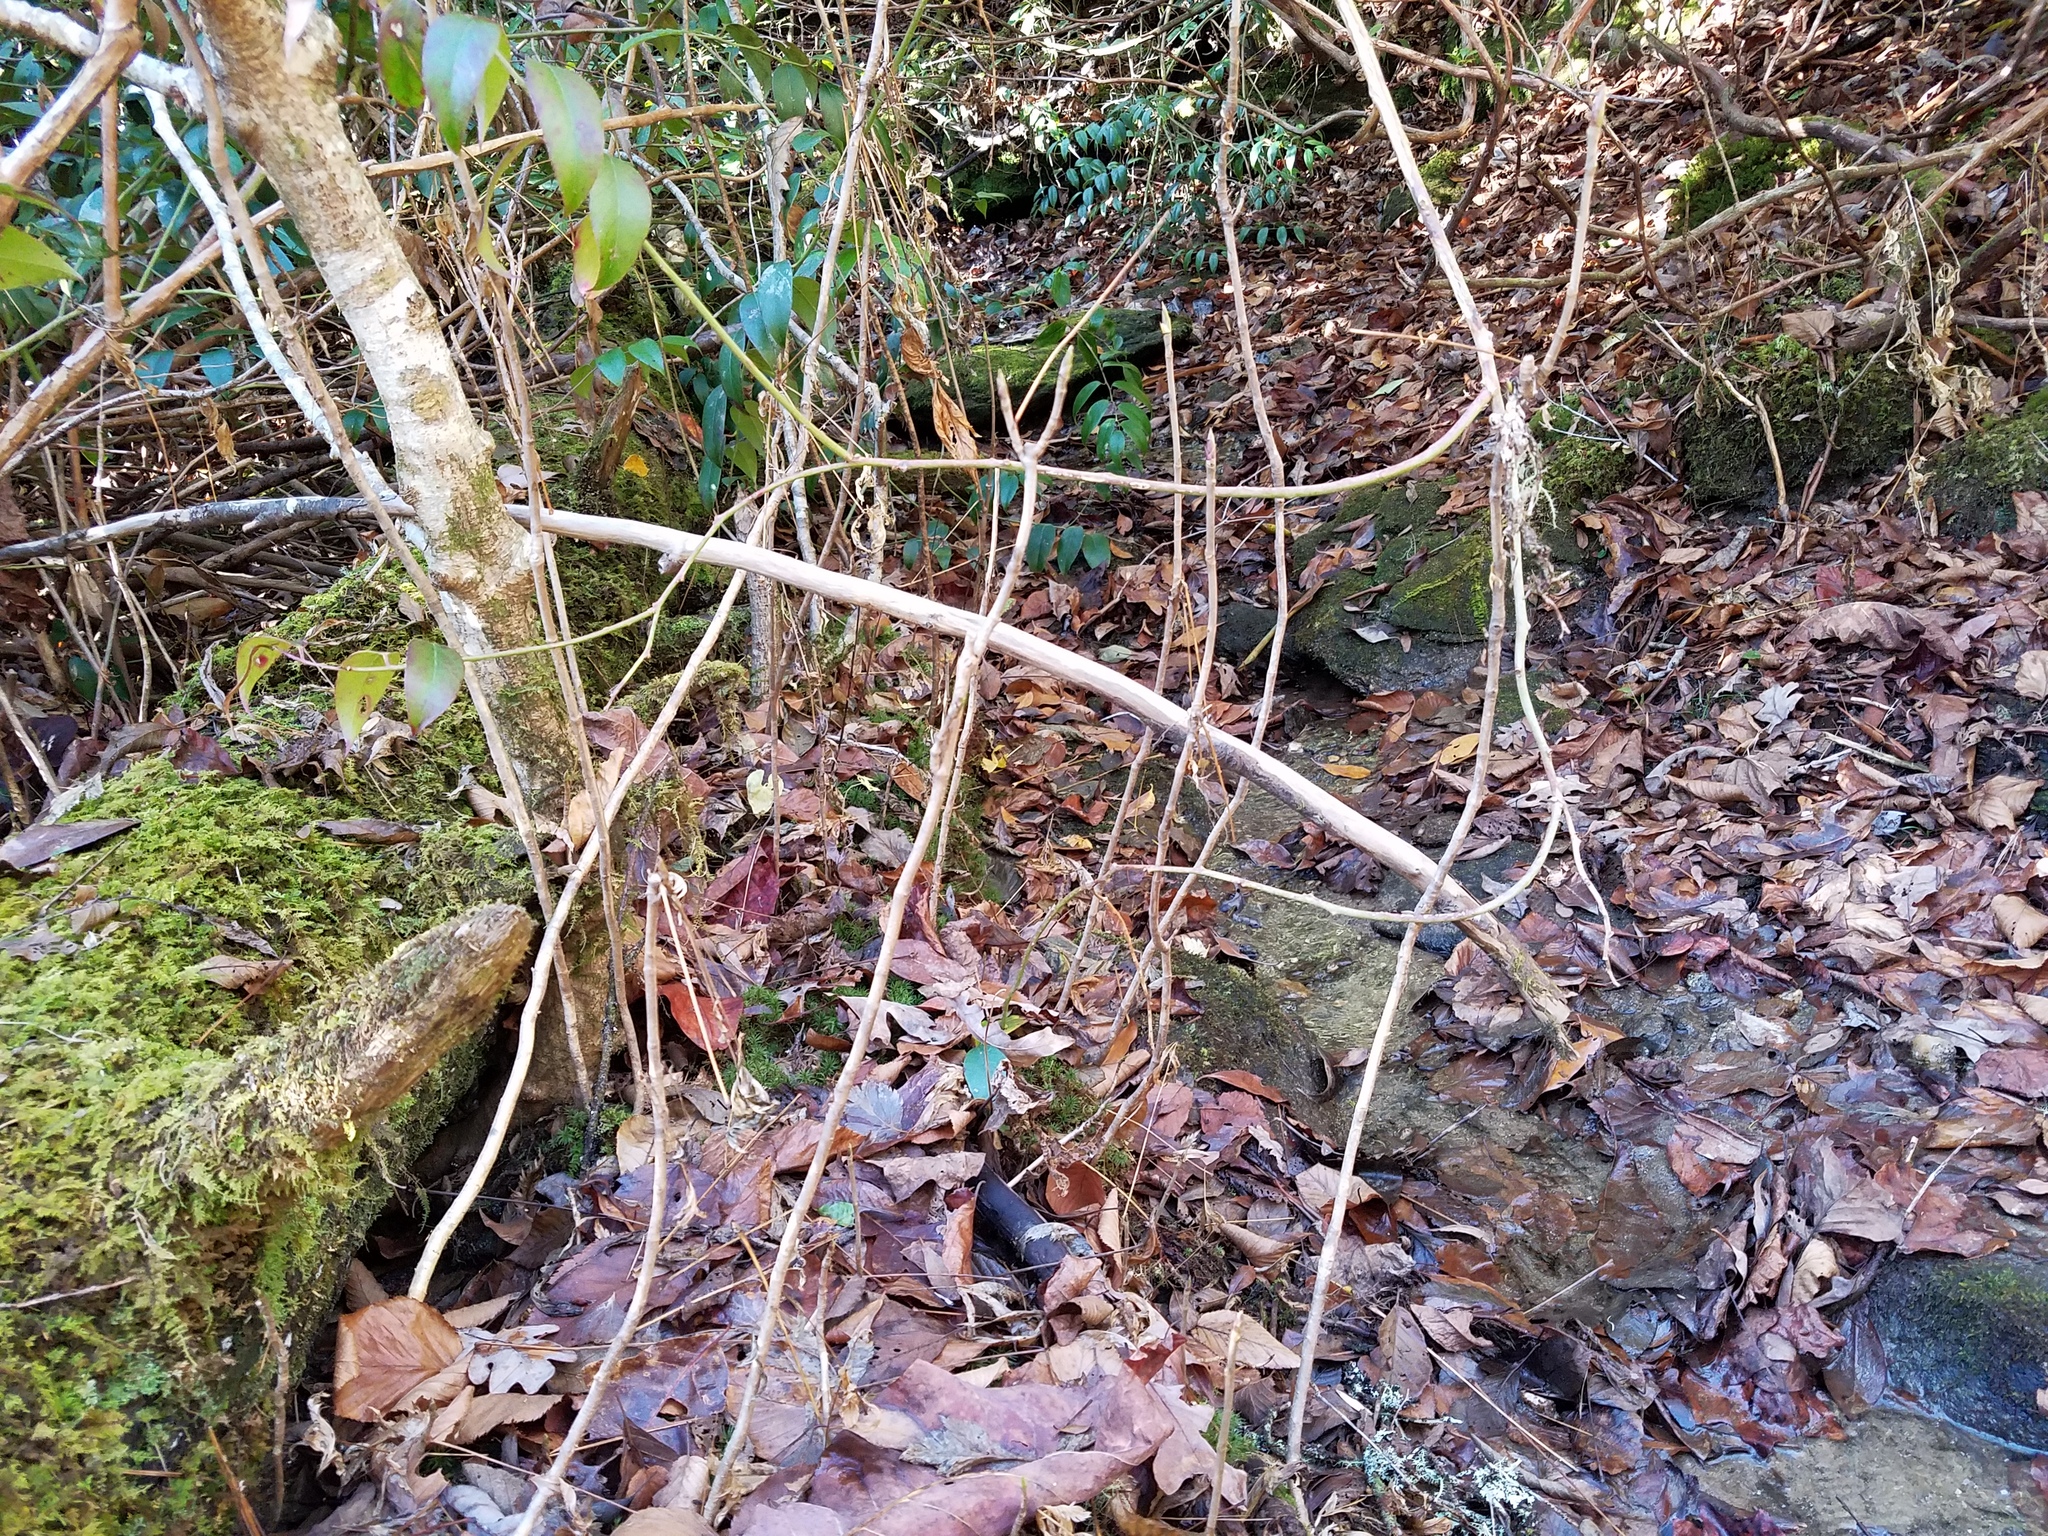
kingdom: Plantae
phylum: Tracheophyta
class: Magnoliopsida
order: Ranunculales
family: Ranunculaceae
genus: Xanthorhiza
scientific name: Xanthorhiza simplicissima
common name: Yellowroot
